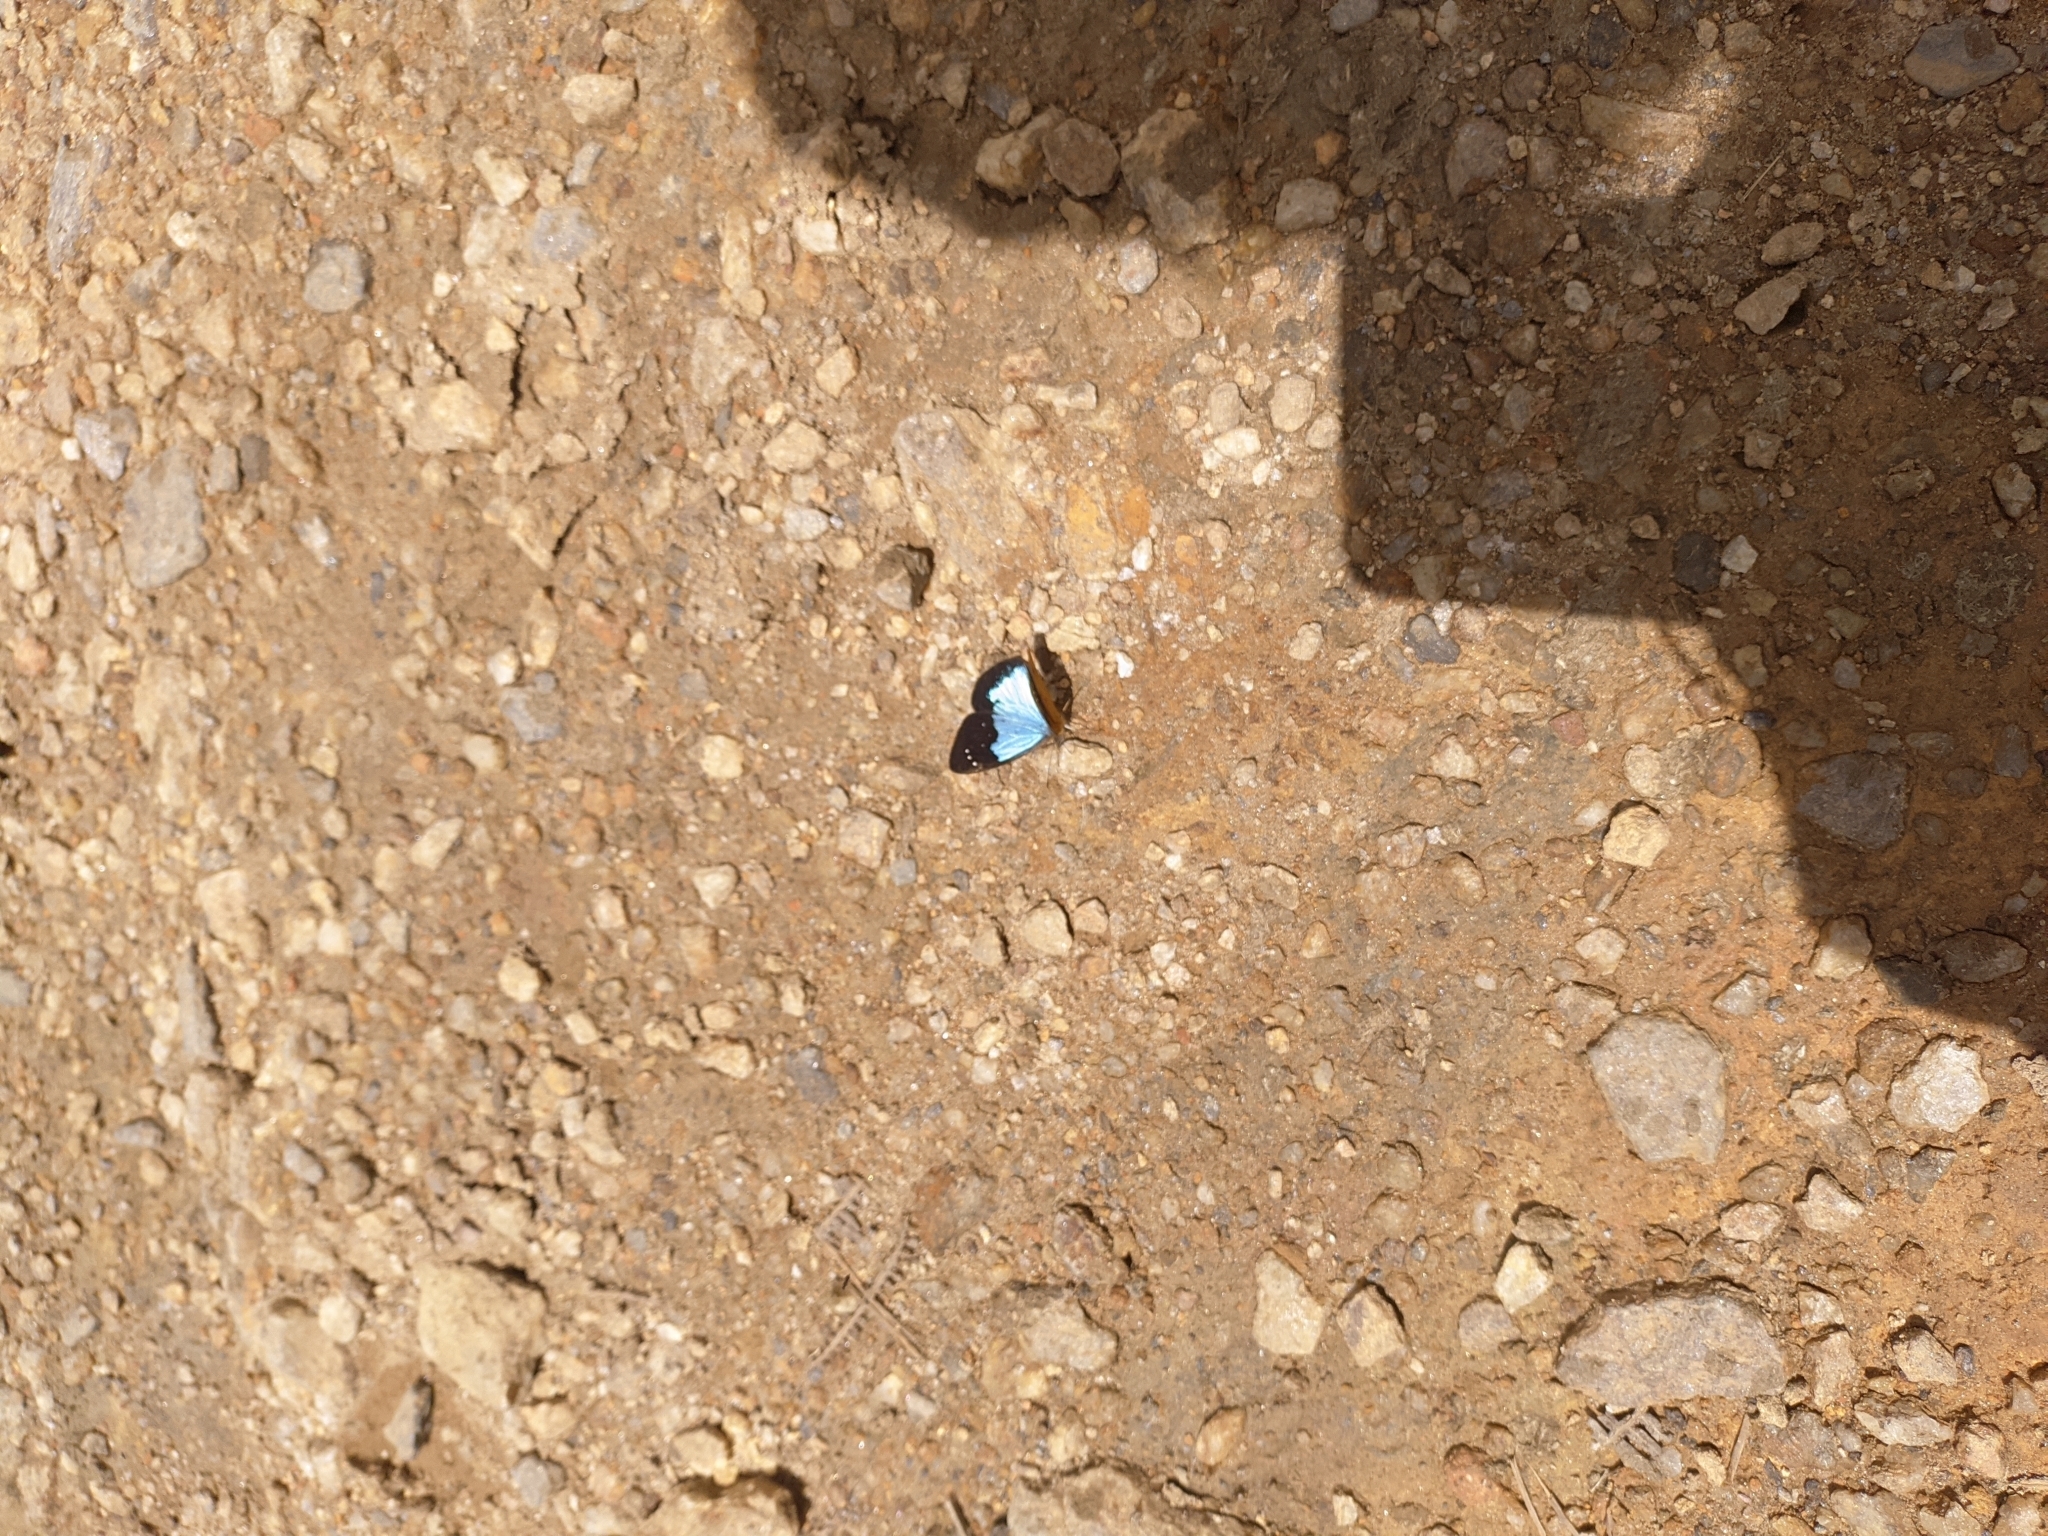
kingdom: Animalia
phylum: Arthropoda
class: Insecta
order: Lepidoptera
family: Nymphalidae
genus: Lymanopoda
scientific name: Lymanopoda caeruleata
